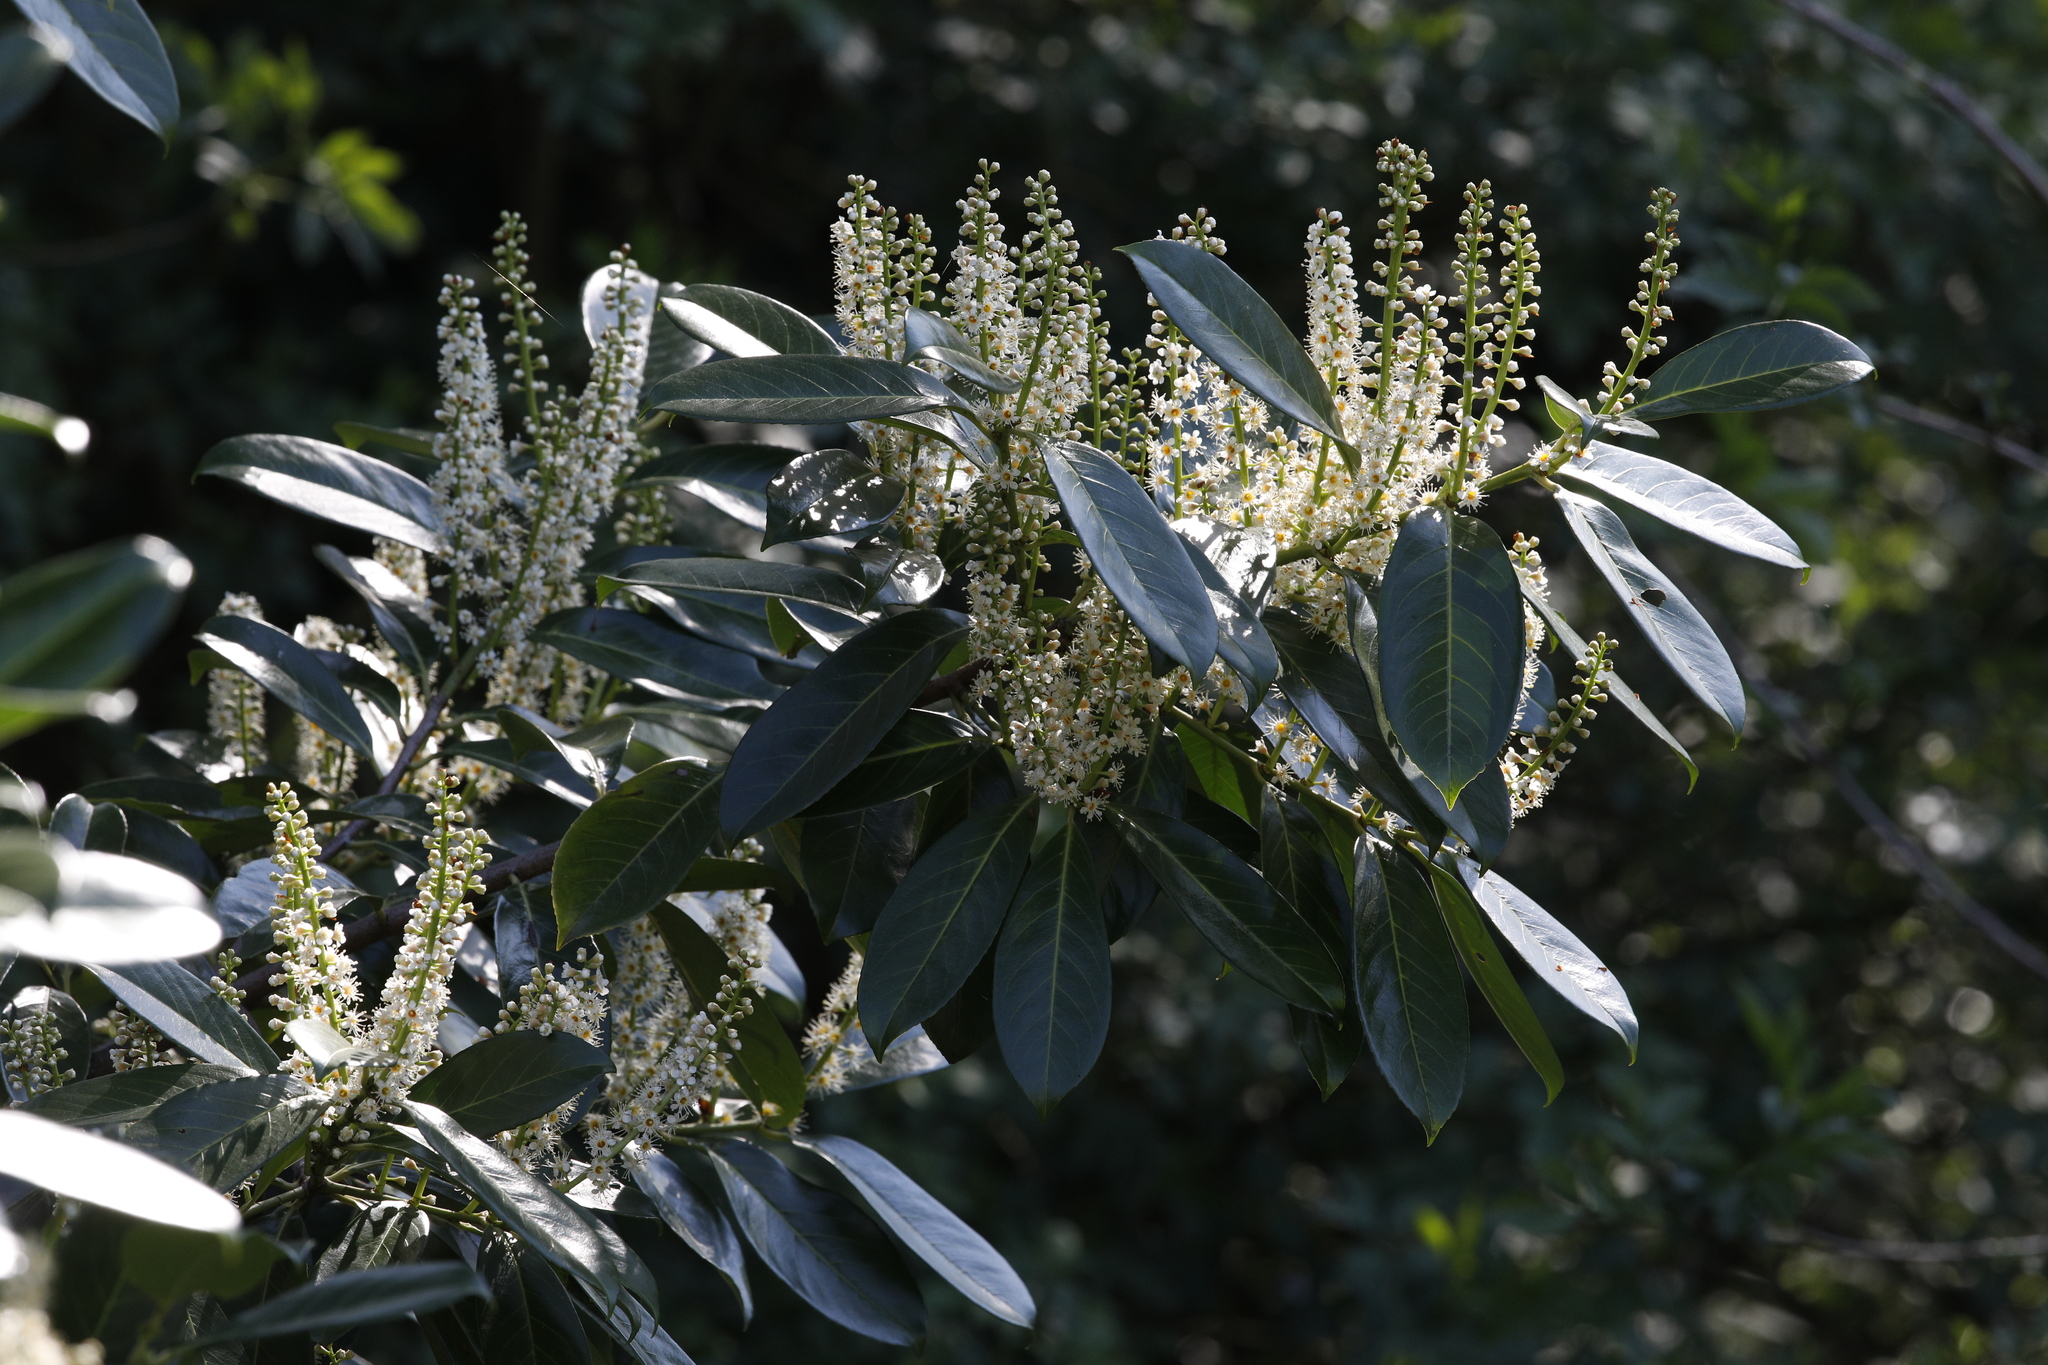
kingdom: Plantae
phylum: Tracheophyta
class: Magnoliopsida
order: Rosales
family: Rosaceae
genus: Prunus
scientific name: Prunus laurocerasus
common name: Cherry laurel
